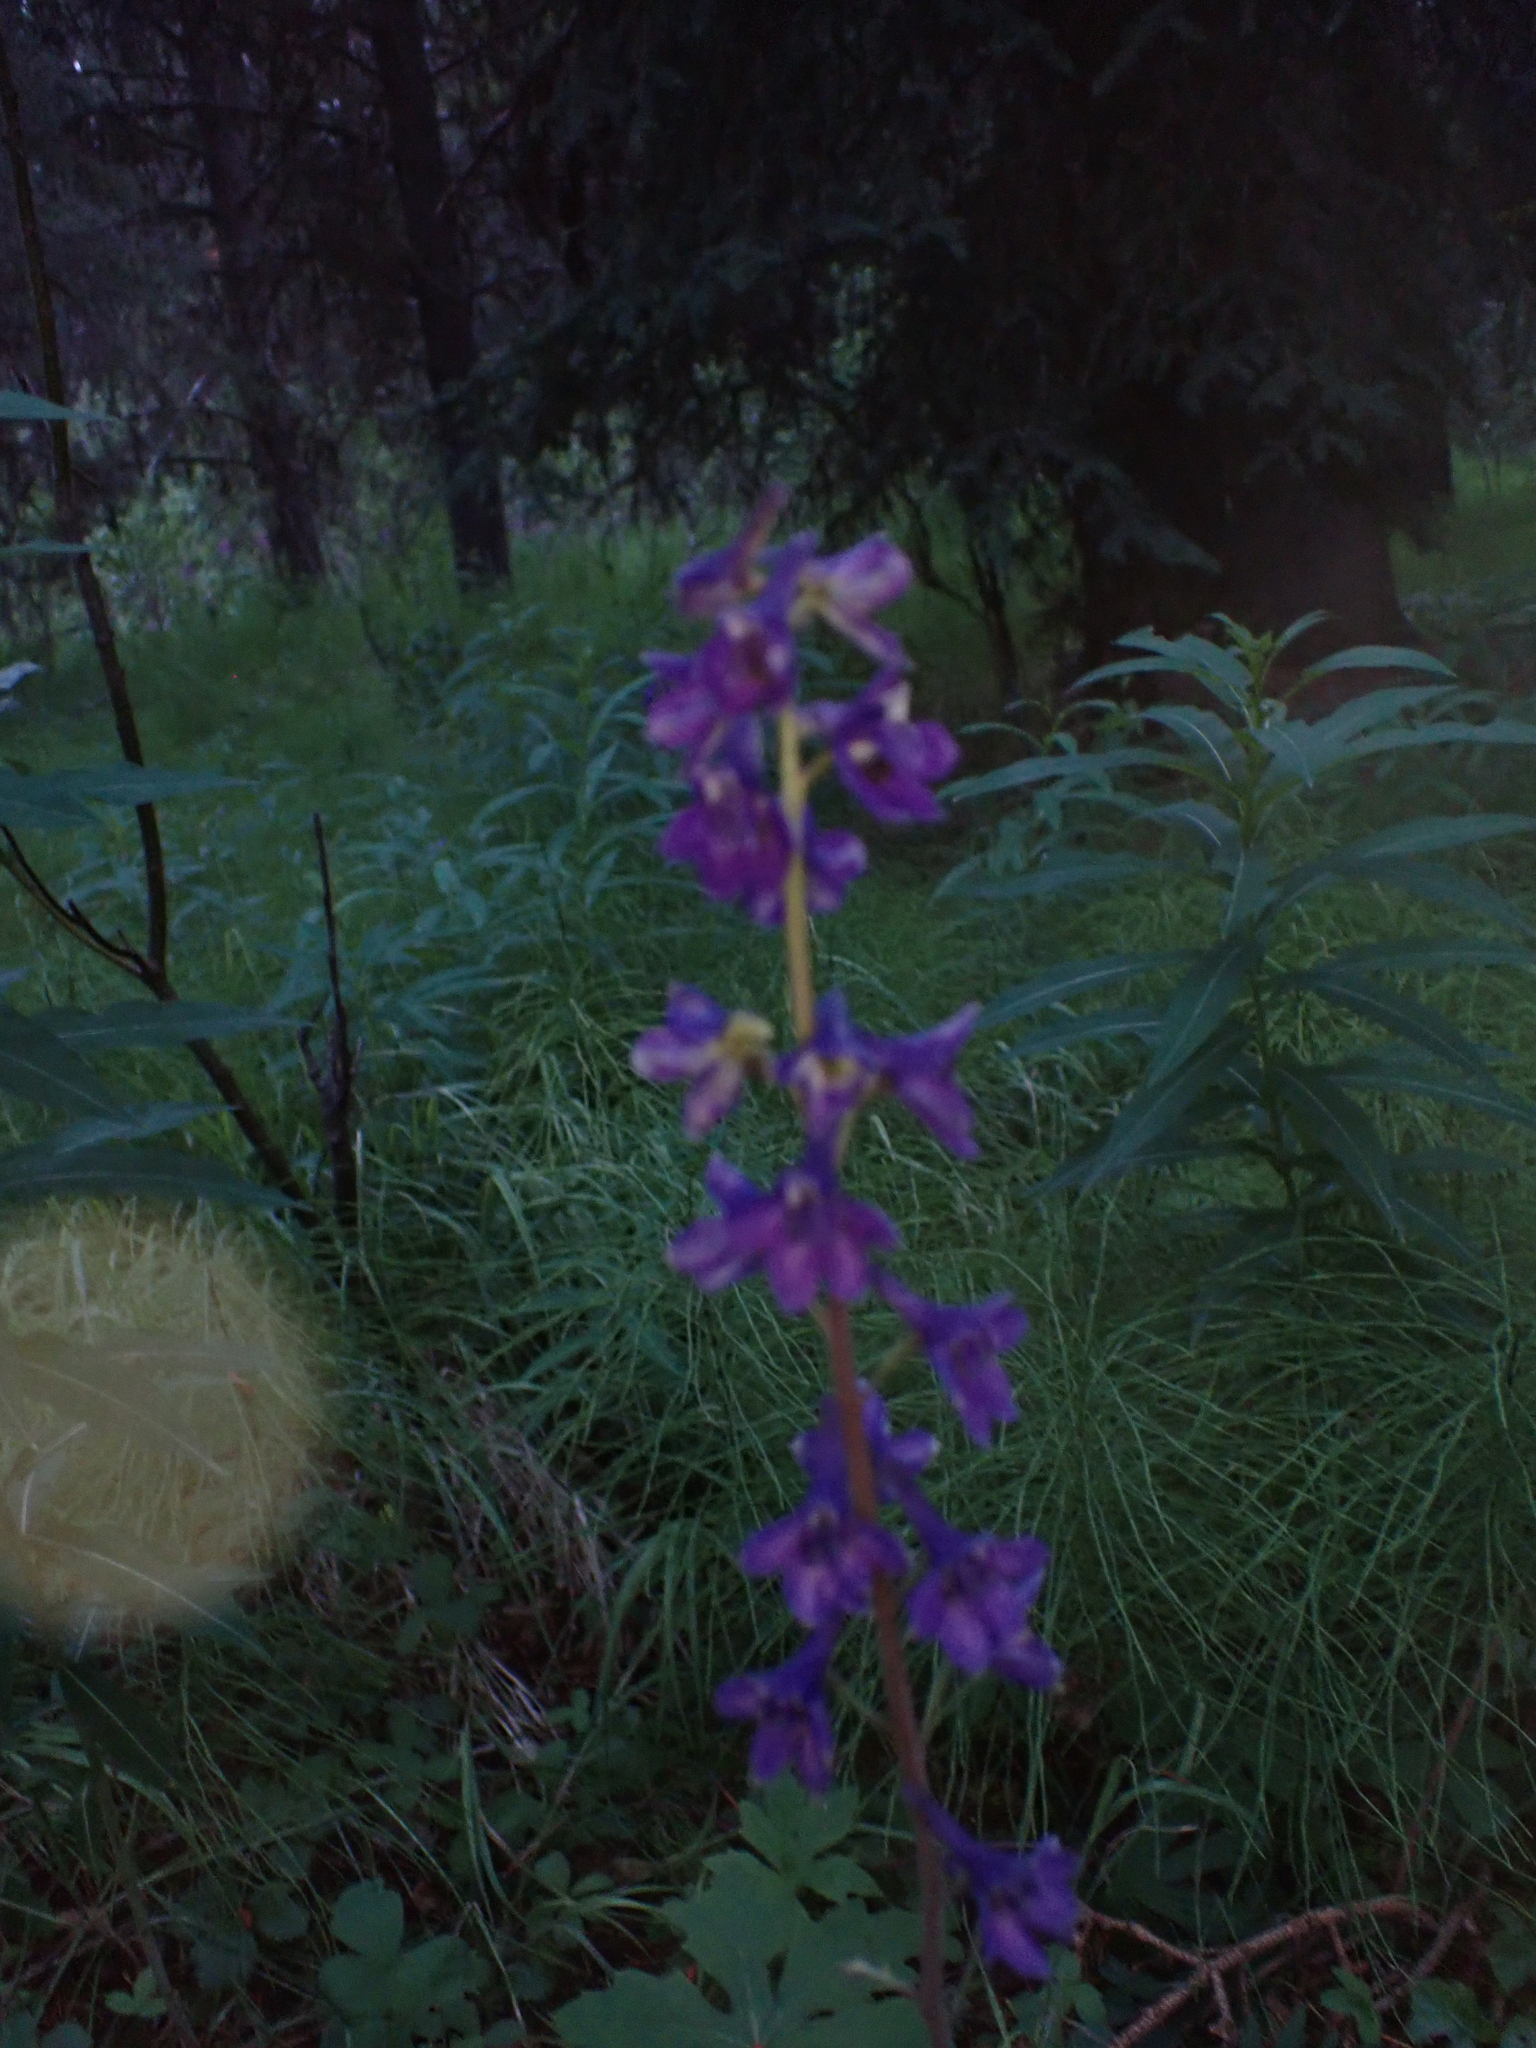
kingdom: Plantae
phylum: Tracheophyta
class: Magnoliopsida
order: Ranunculales
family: Ranunculaceae
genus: Delphinium
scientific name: Delphinium glaucum
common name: Brown's larkspur
